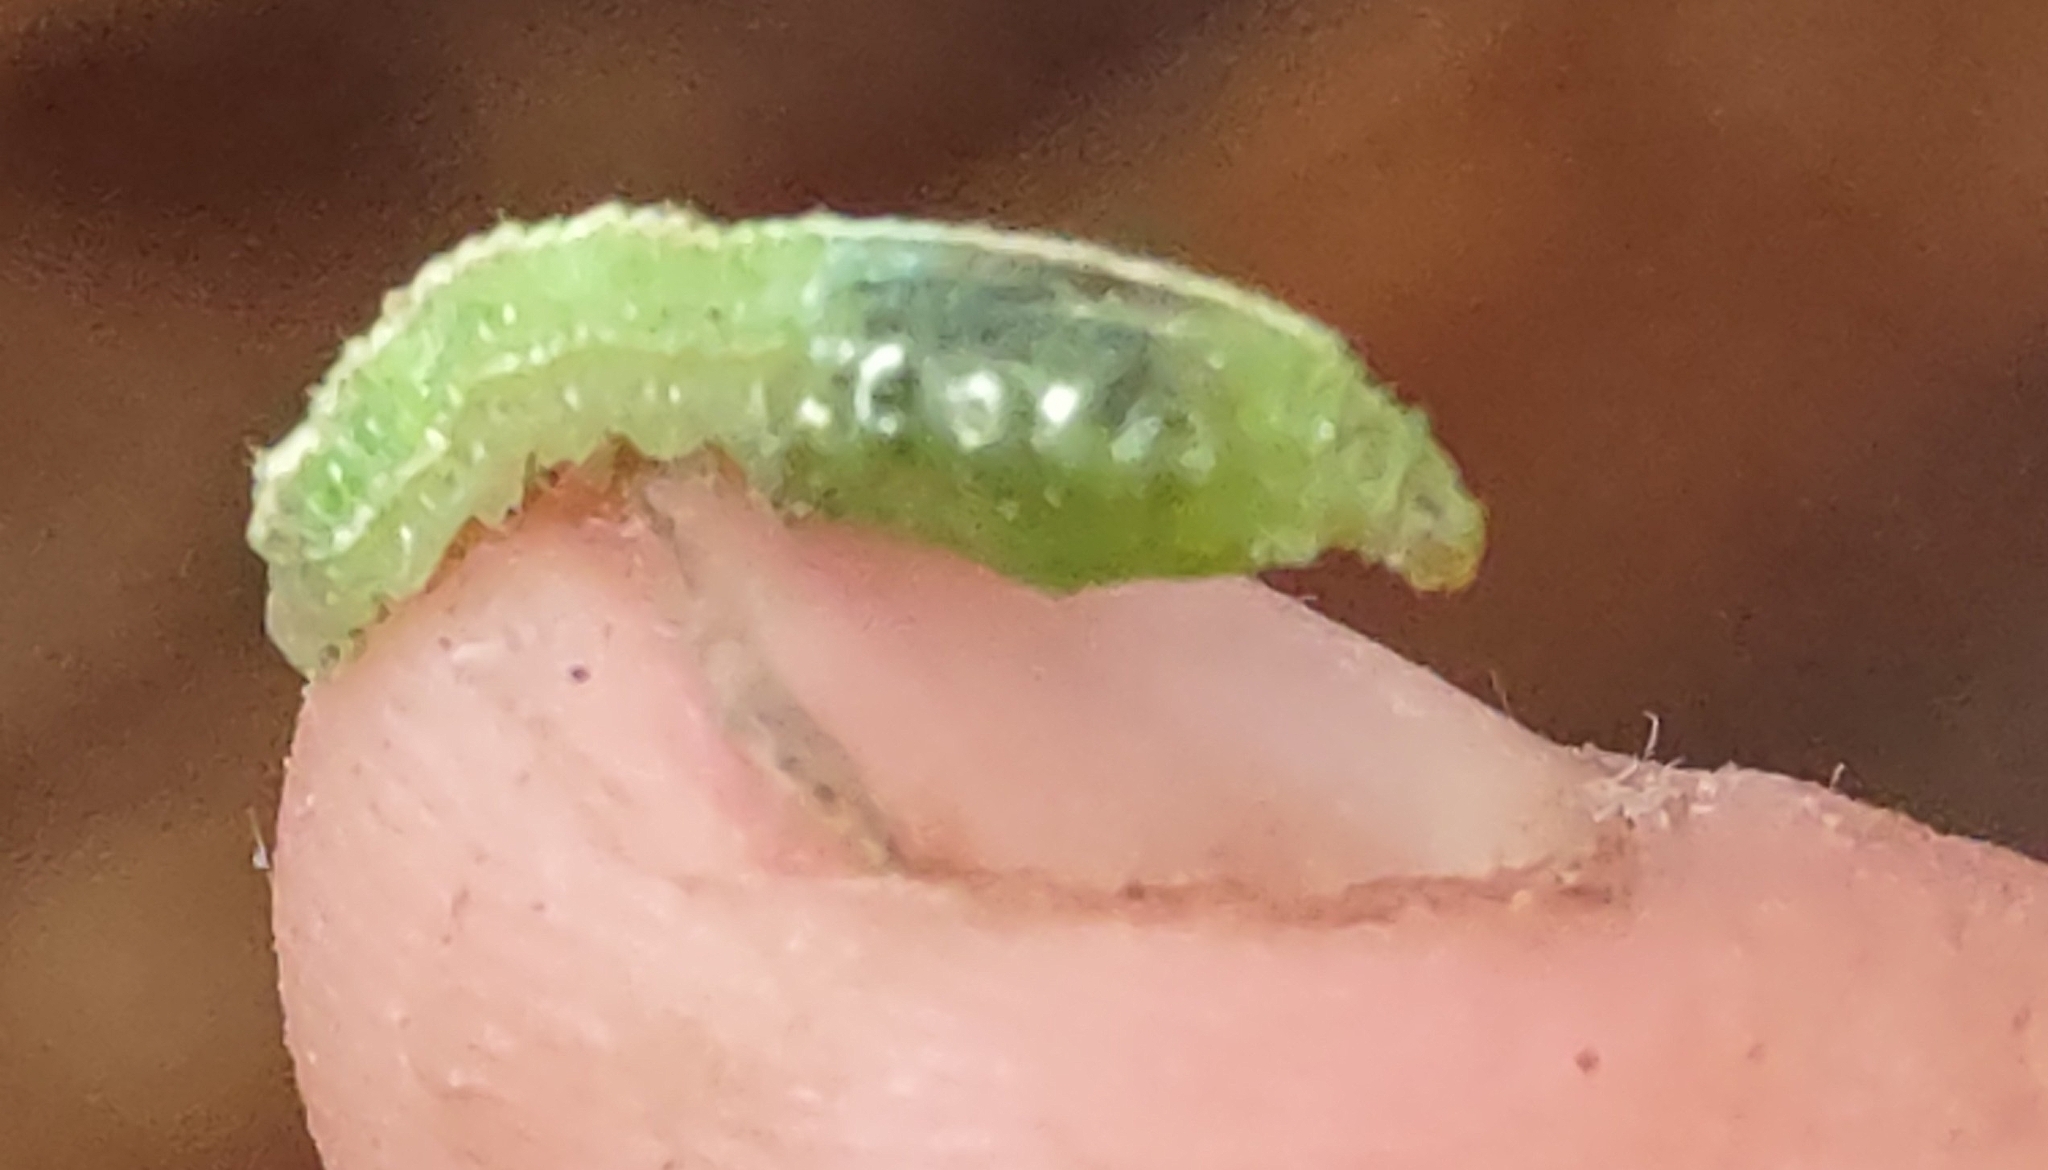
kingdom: Animalia
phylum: Arthropoda
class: Insecta
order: Diptera
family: Syrphidae
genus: Scaeva
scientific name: Scaeva affinis
